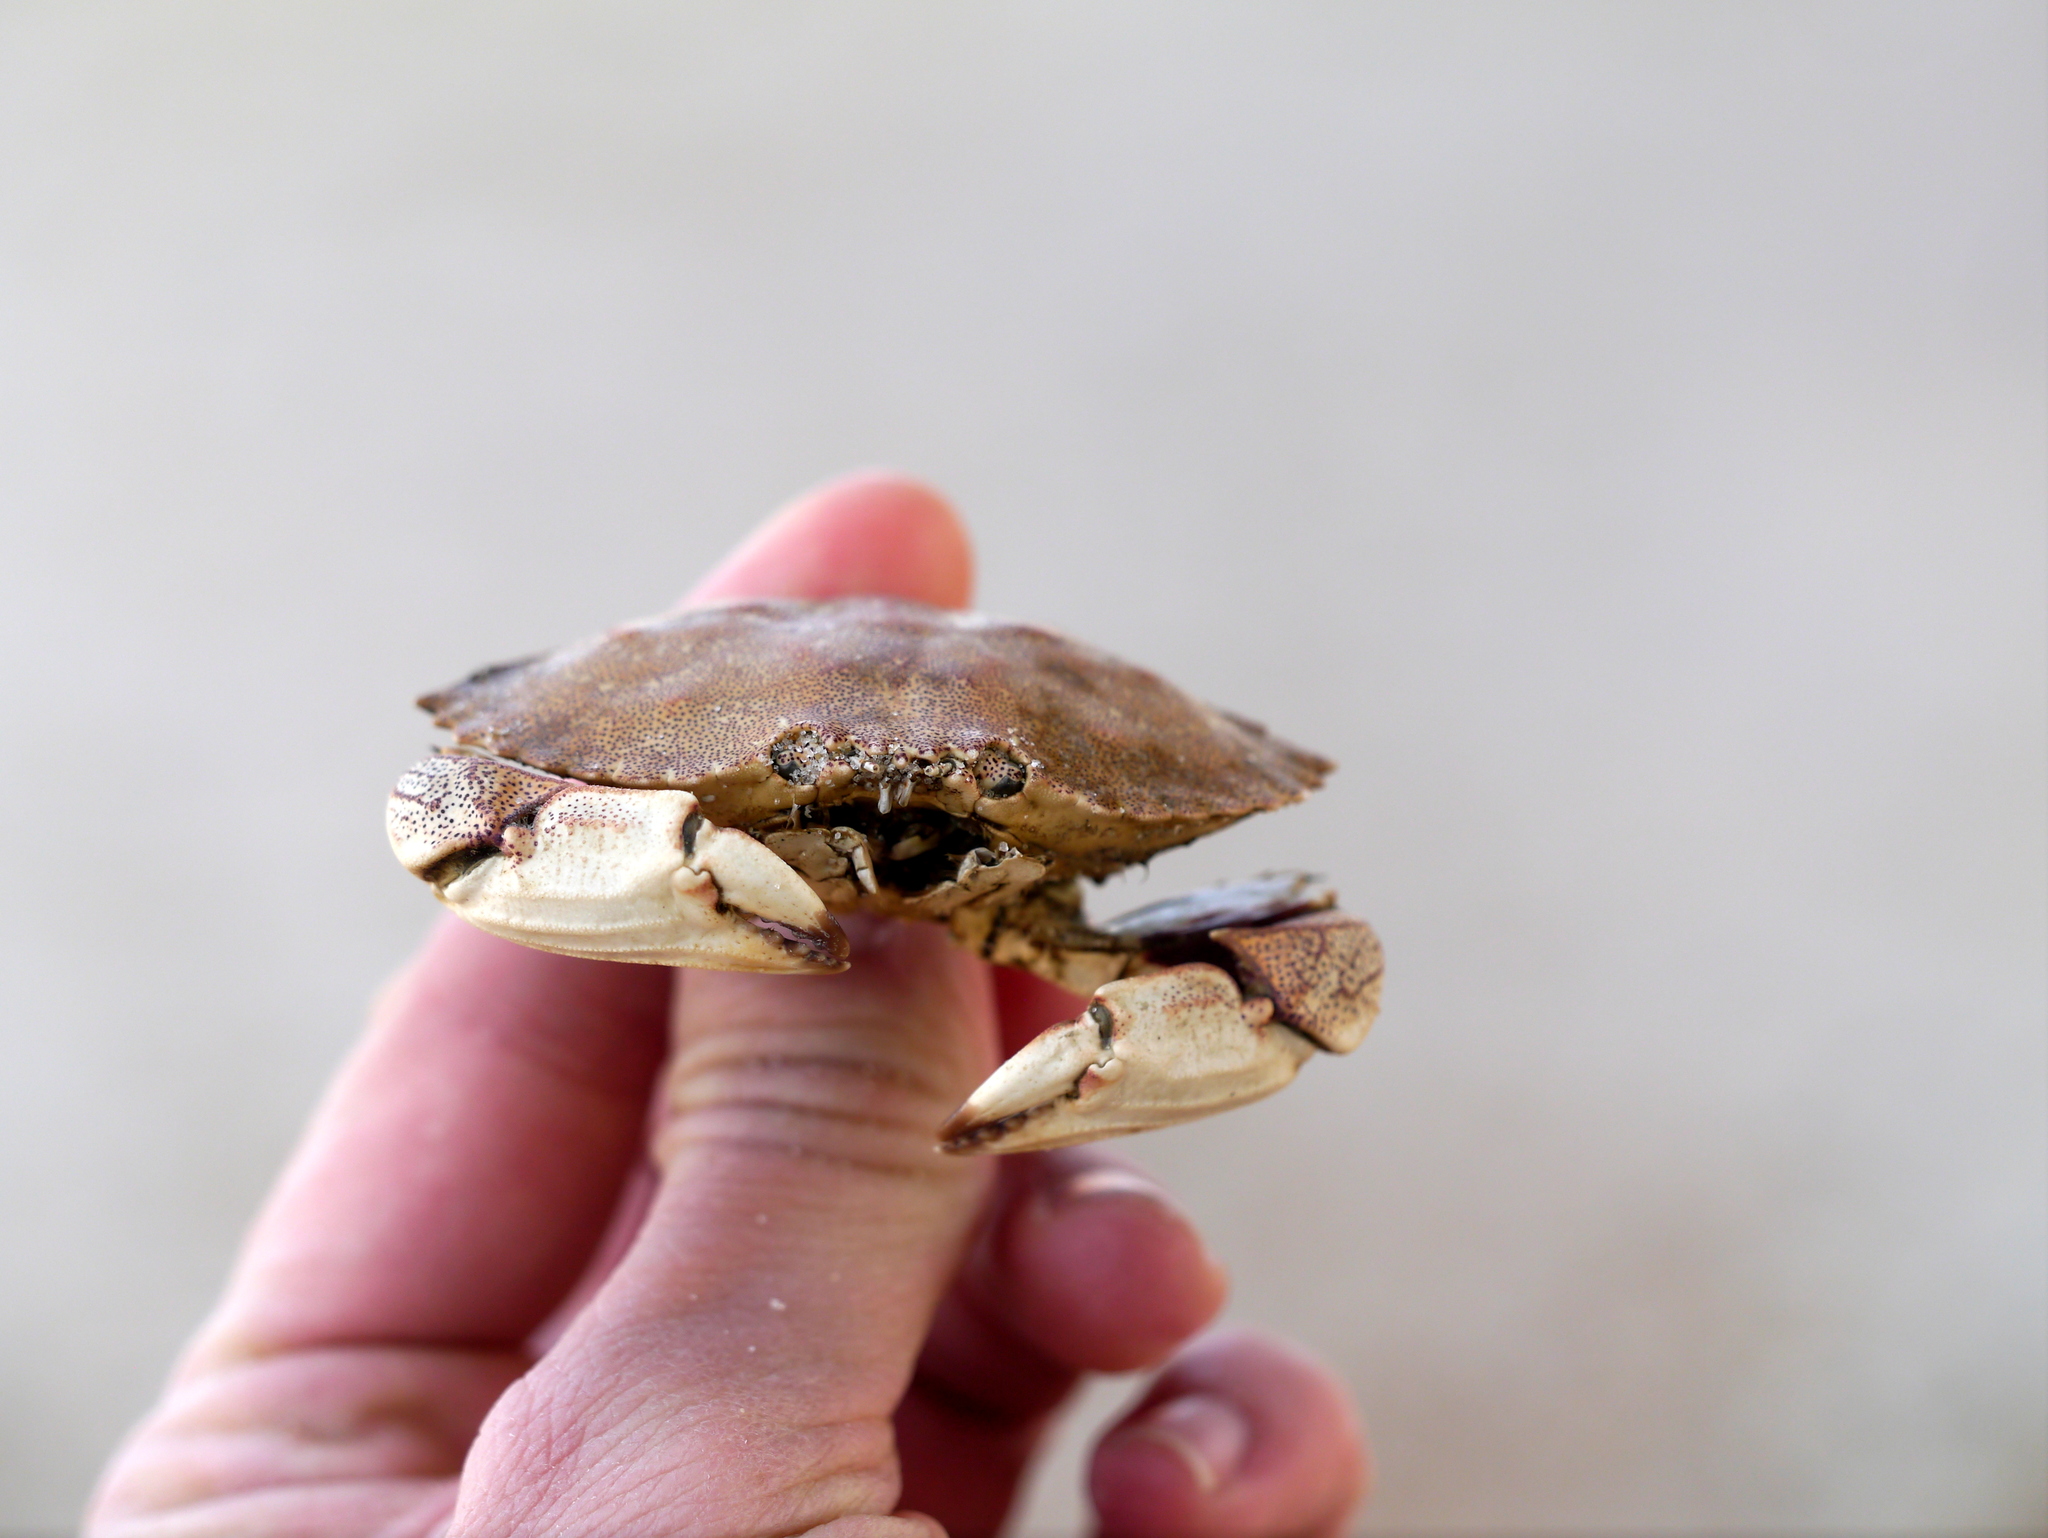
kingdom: Animalia
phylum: Arthropoda
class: Malacostraca
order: Decapoda
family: Cancridae
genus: Cancer
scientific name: Cancer irroratus
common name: Atlantic rock crab
